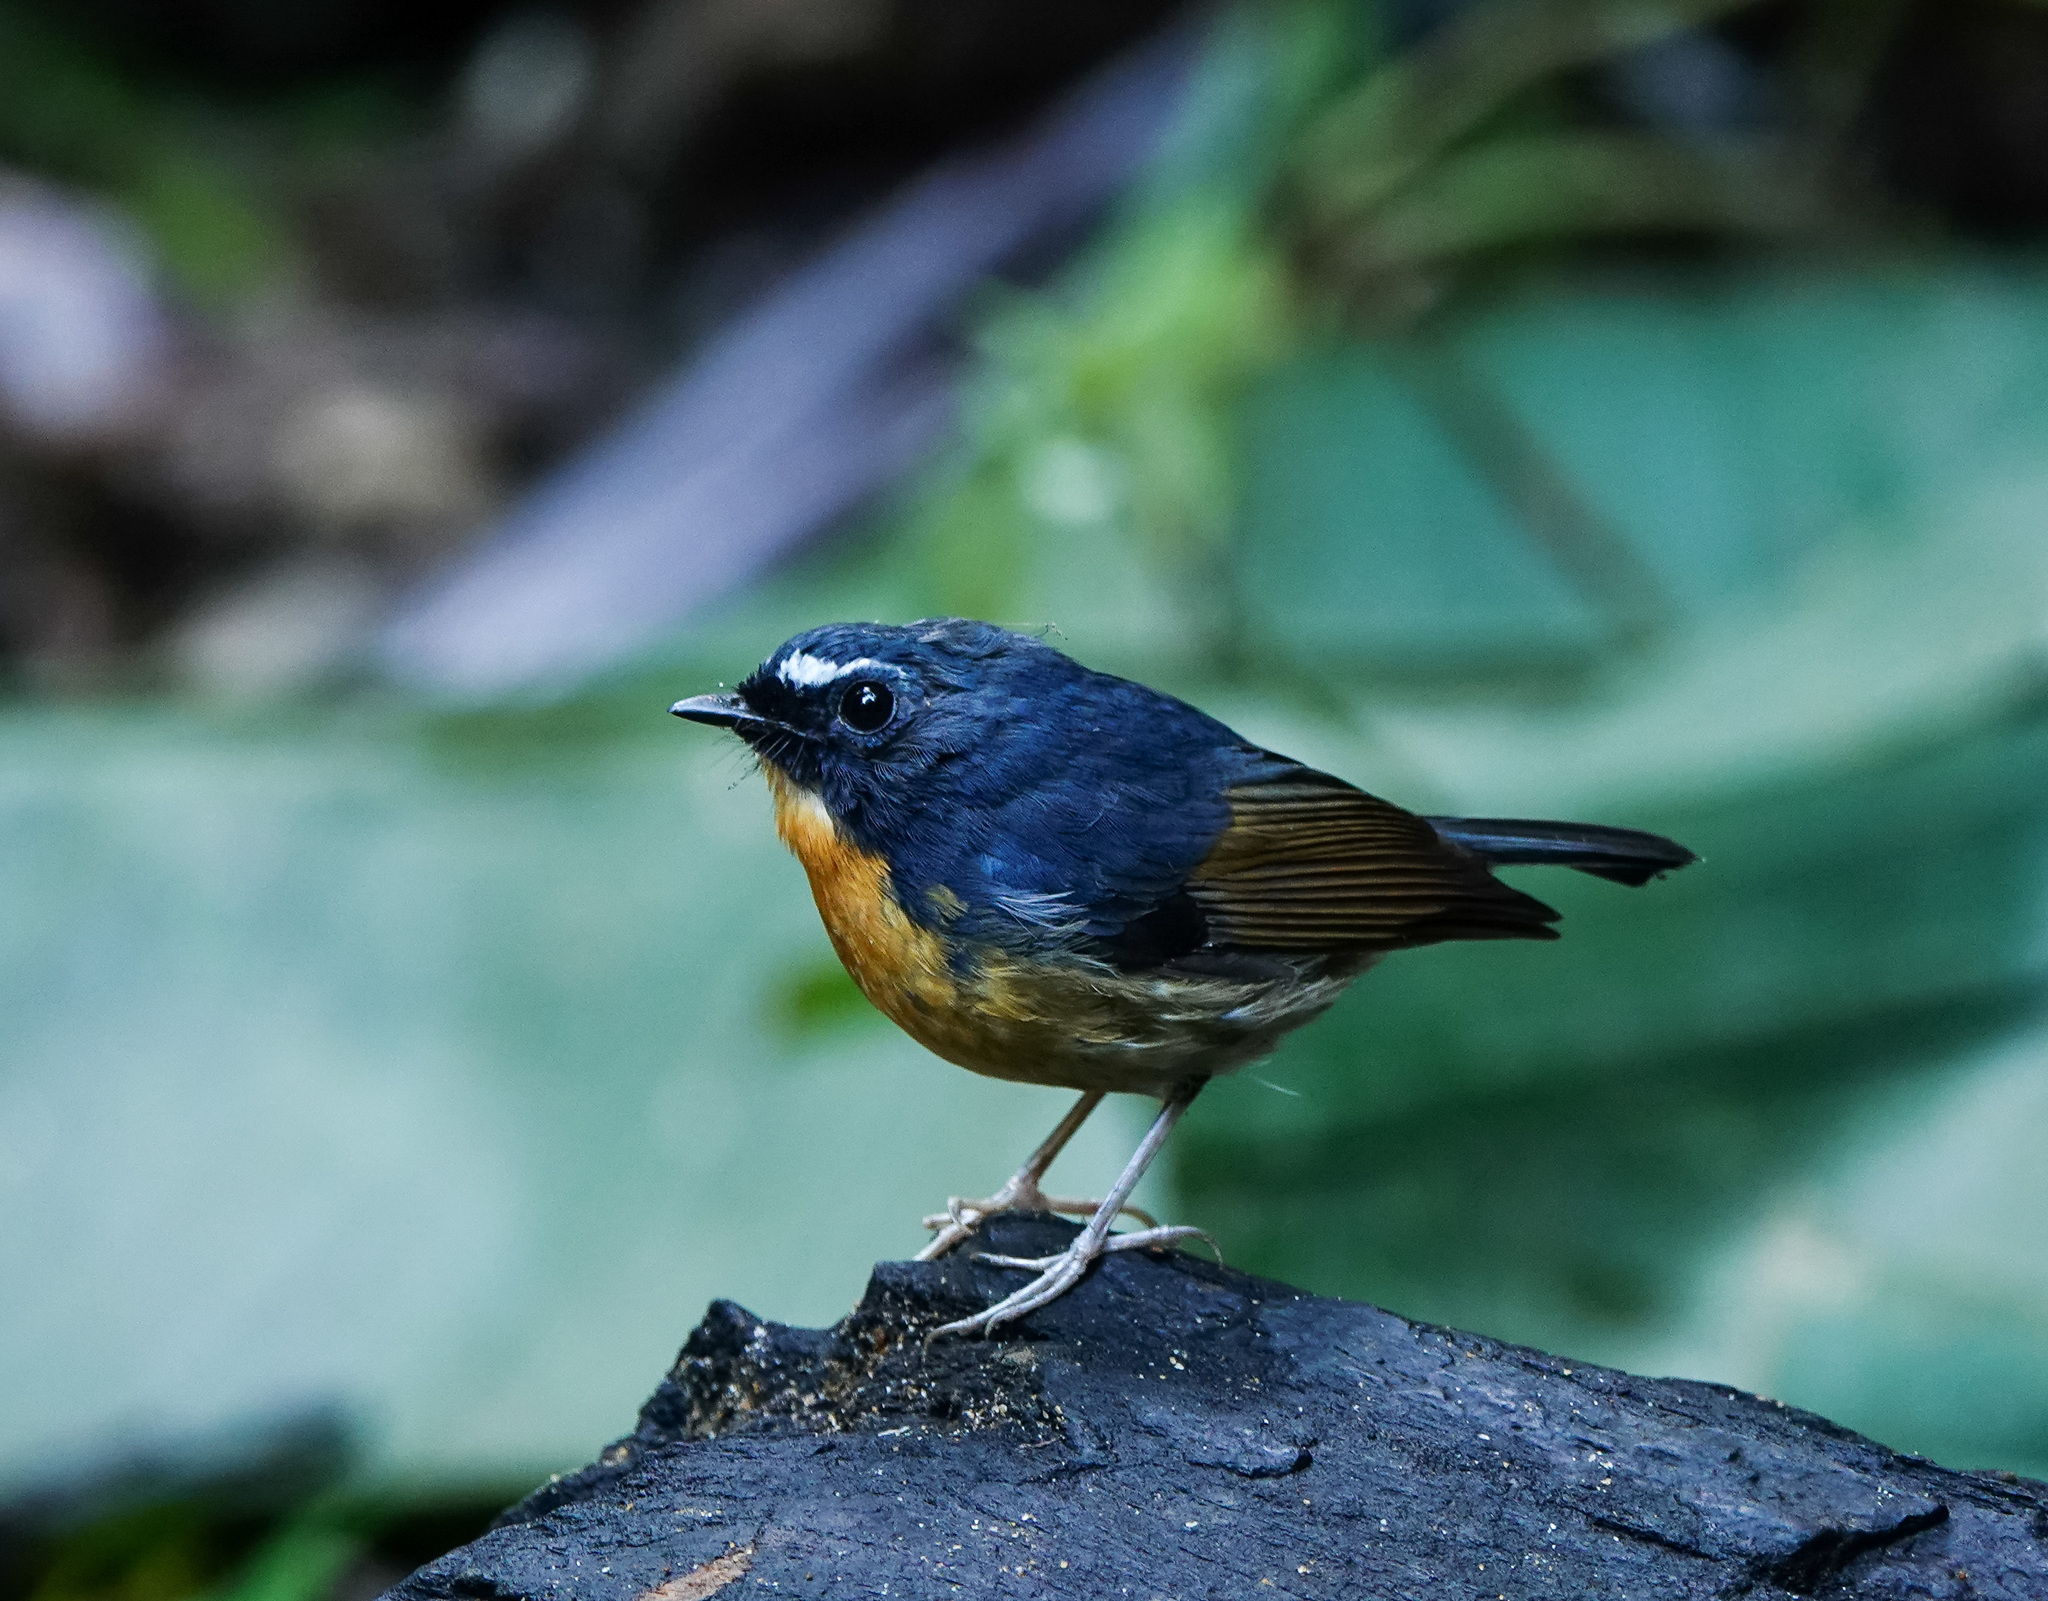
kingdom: Animalia
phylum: Chordata
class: Aves
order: Passeriformes
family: Muscicapidae
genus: Ficedula
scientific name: Ficedula hyperythra
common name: Snowy-browed flycatcher
